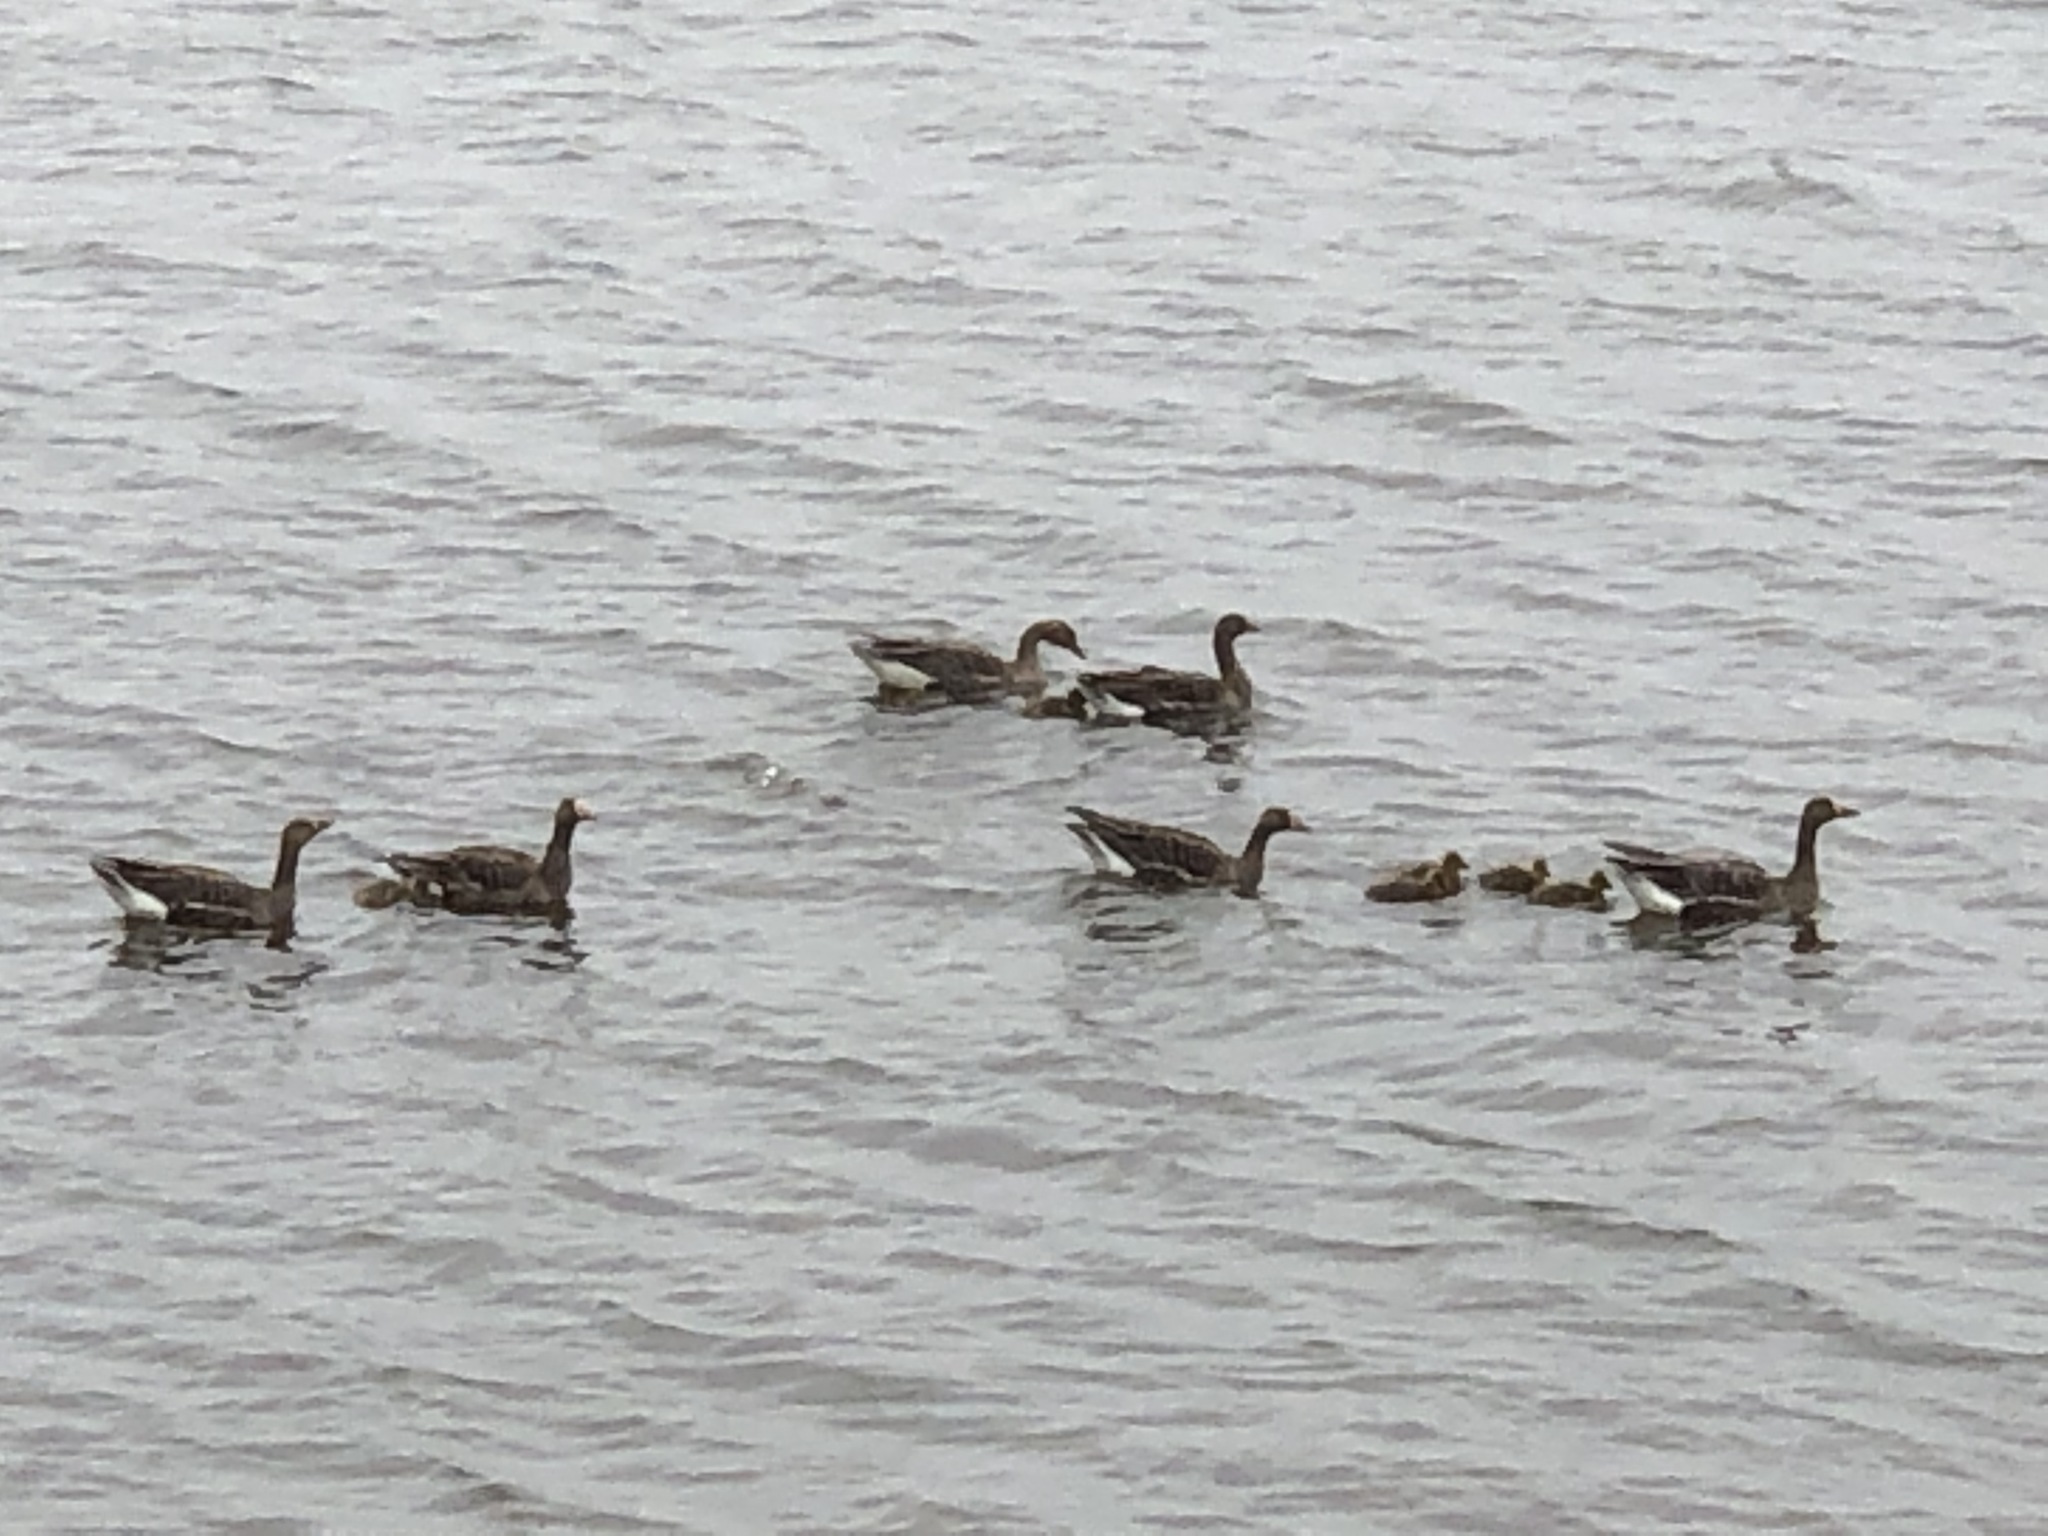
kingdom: Animalia
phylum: Chordata
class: Aves
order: Anseriformes
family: Anatidae
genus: Anser
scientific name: Anser albifrons
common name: Greater white-fronted goose
